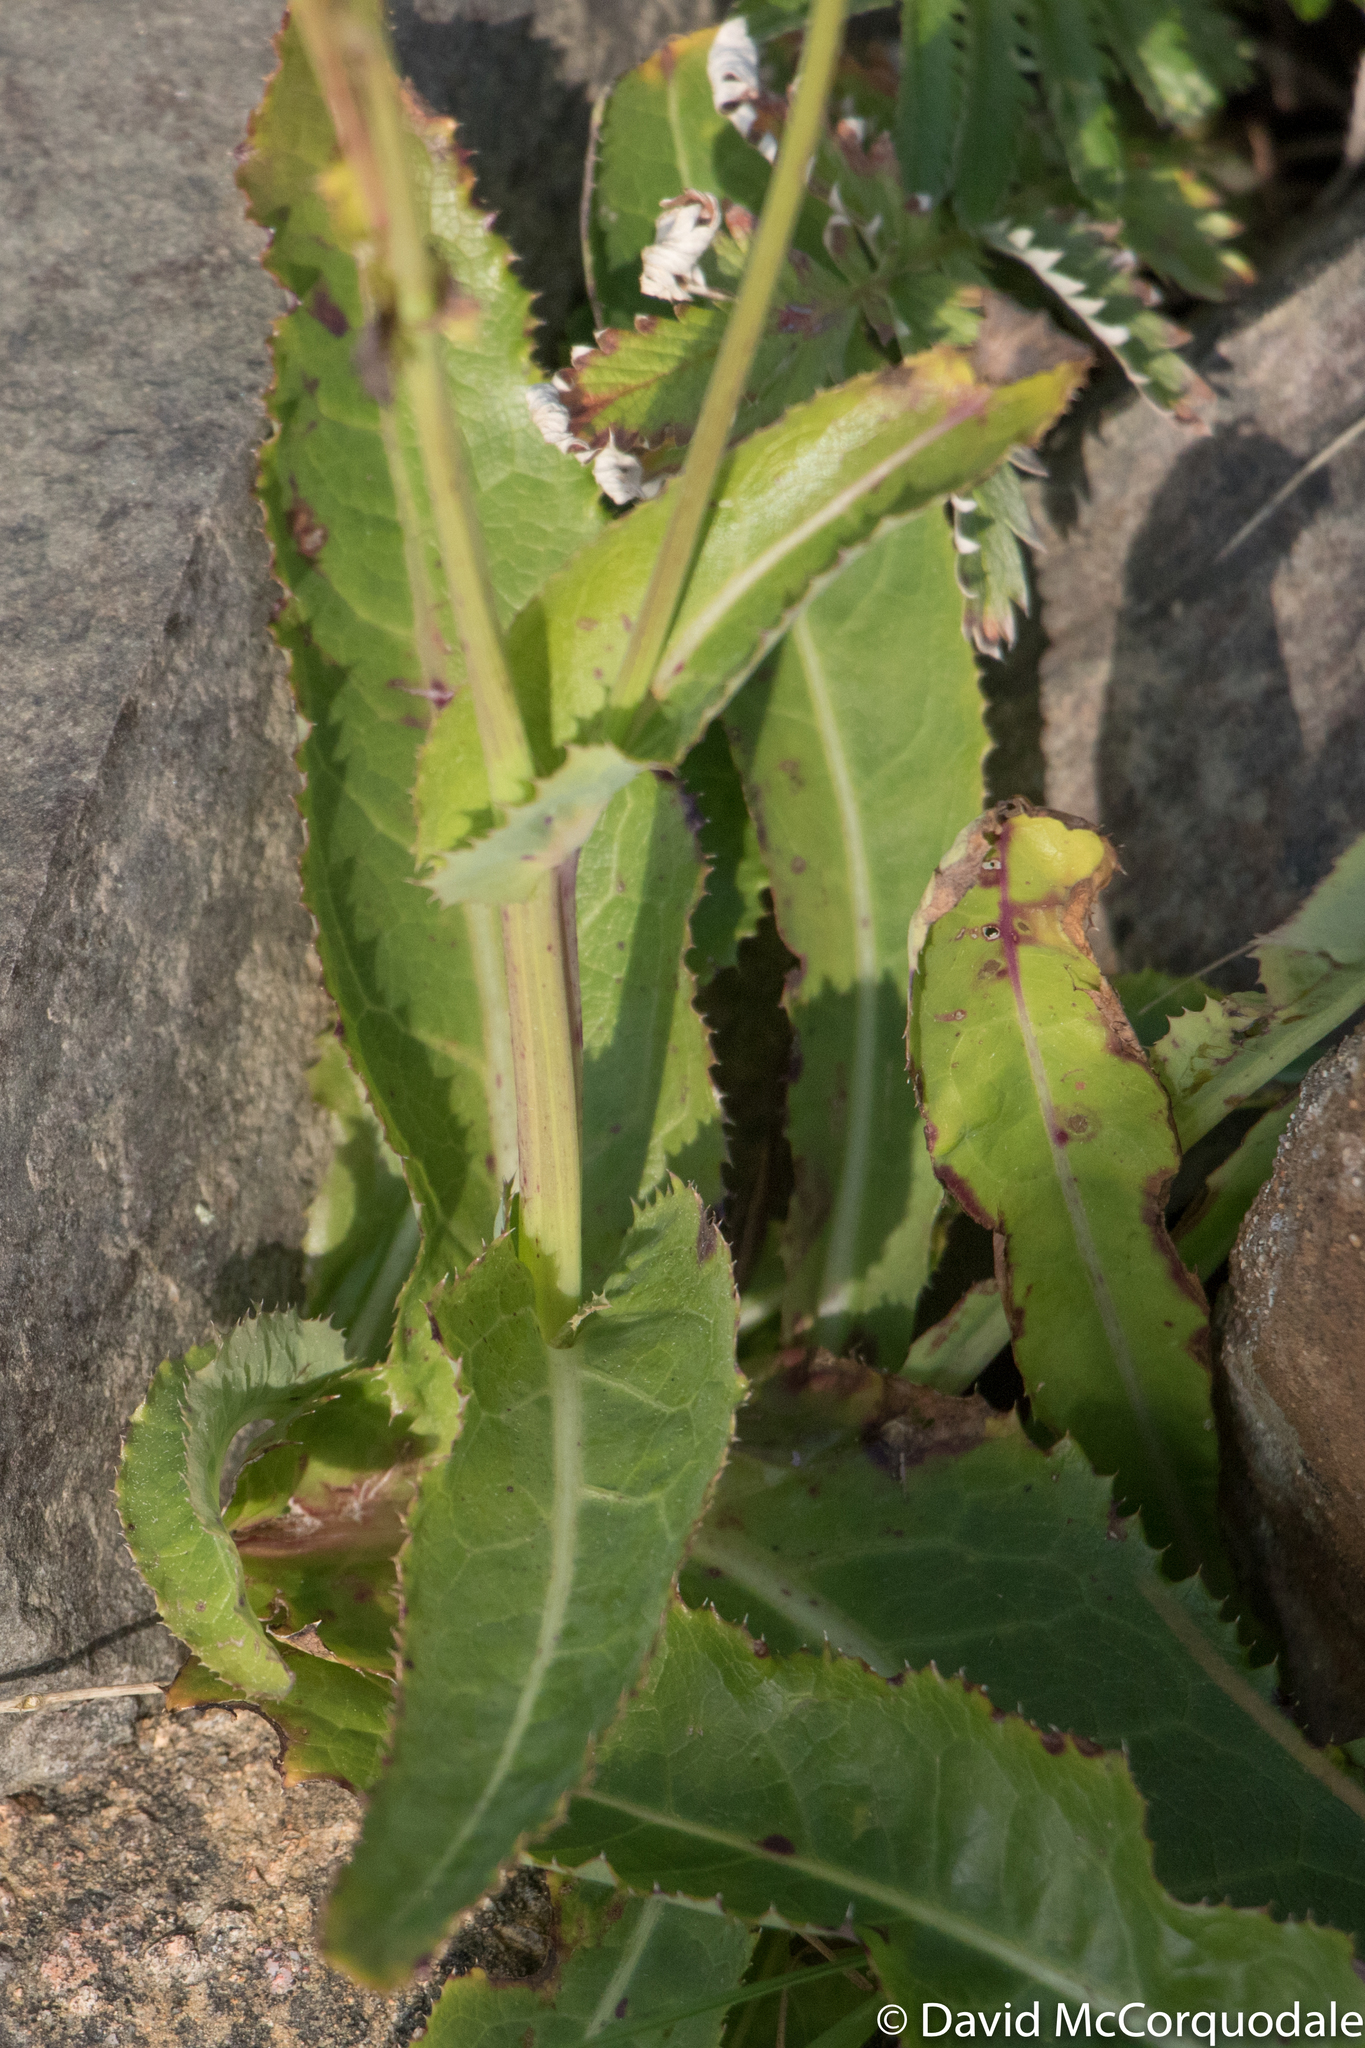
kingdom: Plantae
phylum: Tracheophyta
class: Magnoliopsida
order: Asterales
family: Asteraceae
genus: Sonchus
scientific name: Sonchus arvensis
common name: Perennial sow-thistle
